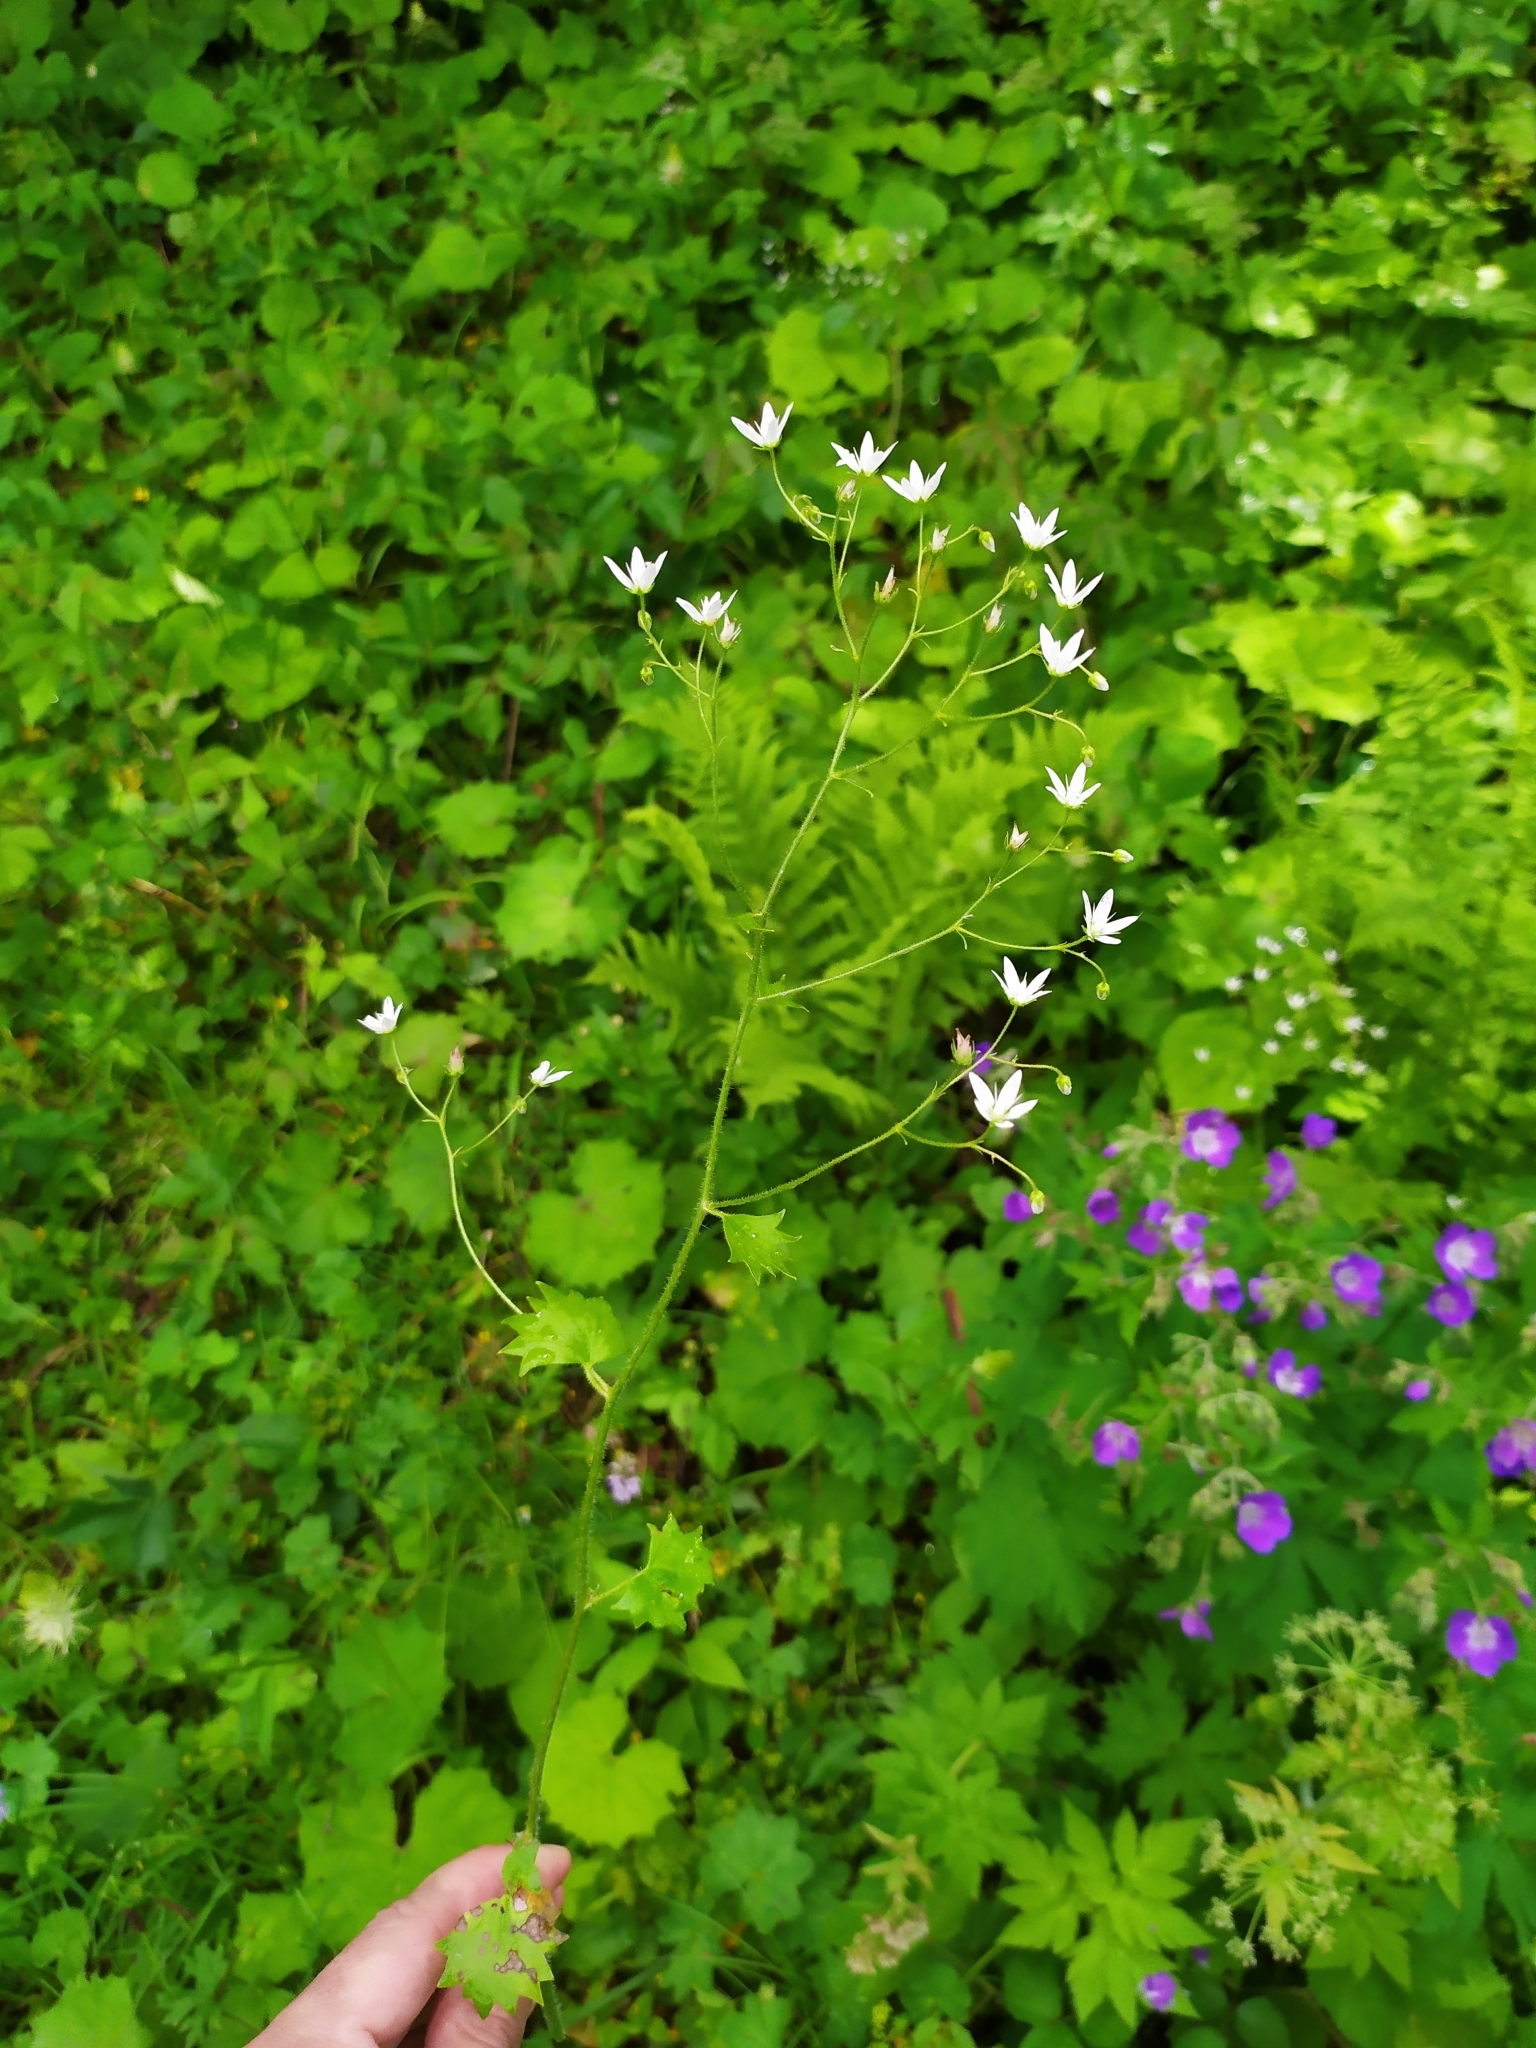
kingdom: Plantae
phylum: Tracheophyta
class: Magnoliopsida
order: Saxifragales
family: Saxifragaceae
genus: Saxifraga
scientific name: Saxifraga rotundifolia
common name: Round-leaved saxifrage
